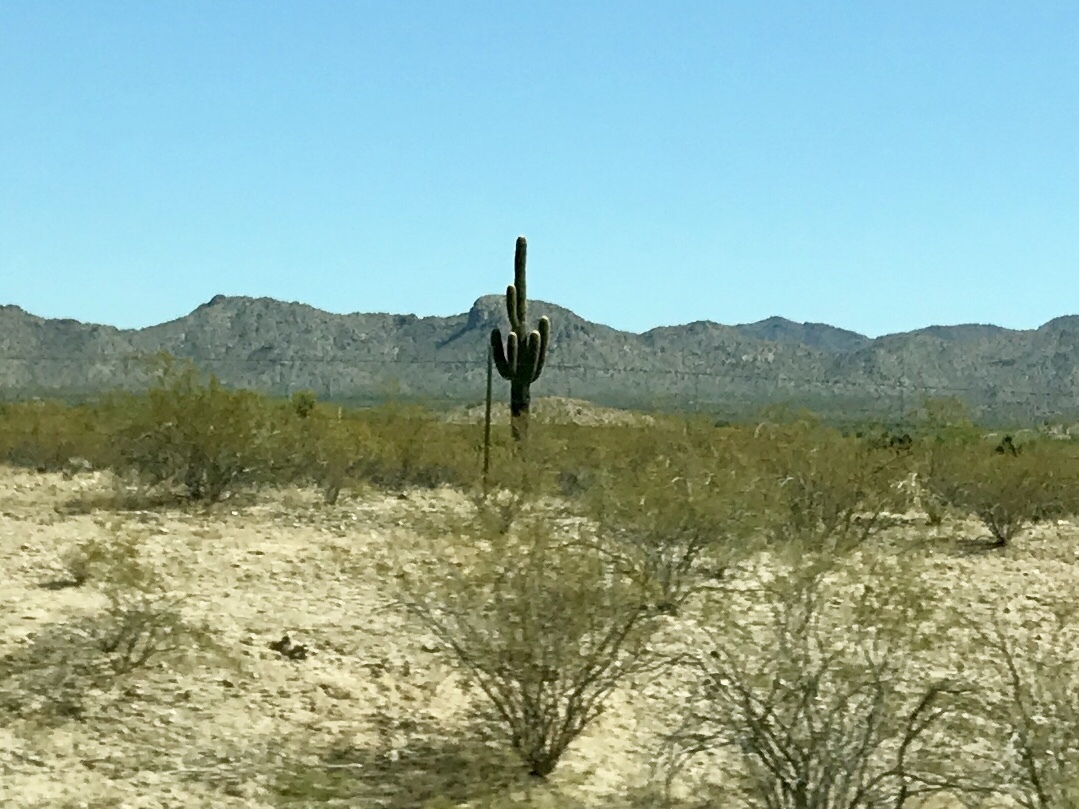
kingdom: Plantae
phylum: Tracheophyta
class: Magnoliopsida
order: Caryophyllales
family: Cactaceae
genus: Carnegiea
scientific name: Carnegiea gigantea
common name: Saguaro
